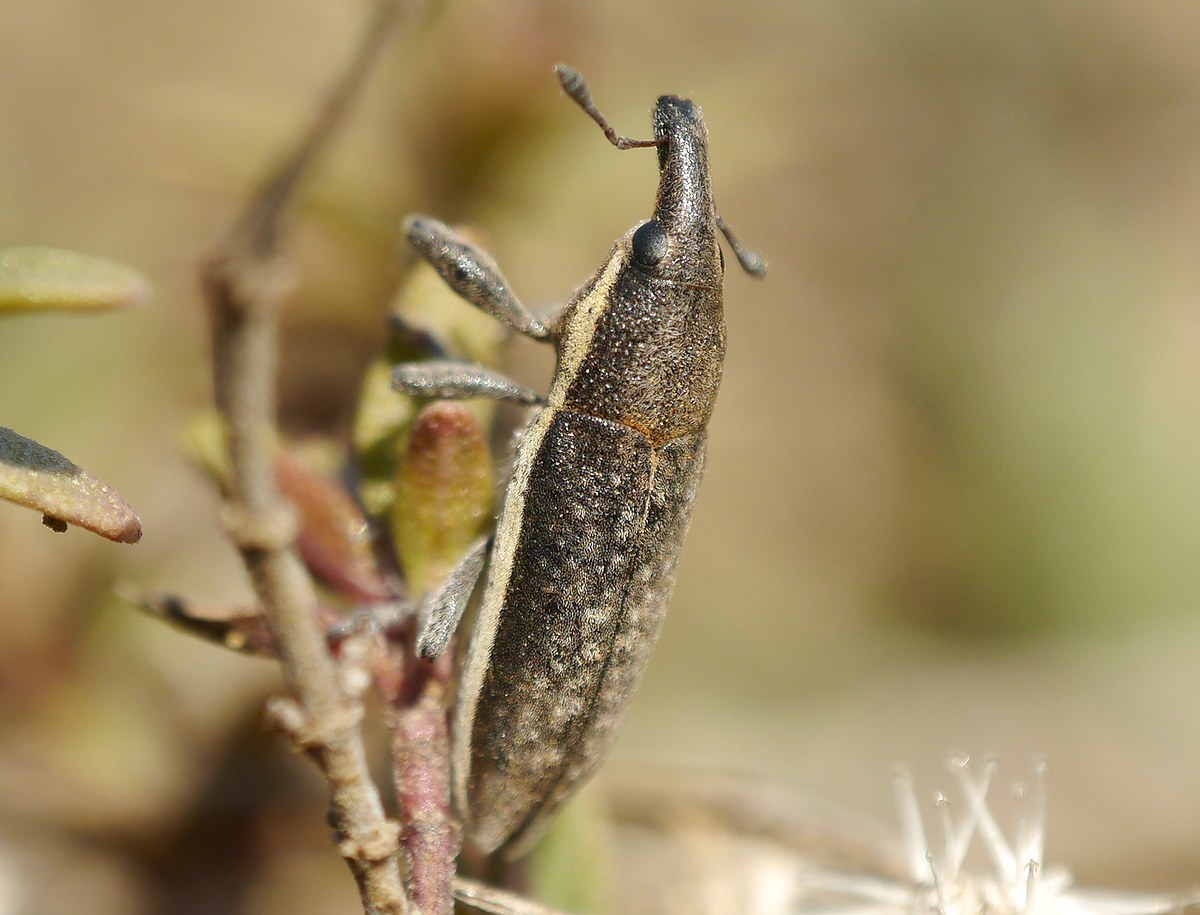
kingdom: Animalia
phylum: Arthropoda
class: Insecta
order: Coleoptera
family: Curculionidae
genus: Lixus
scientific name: Lixus ochraceus
